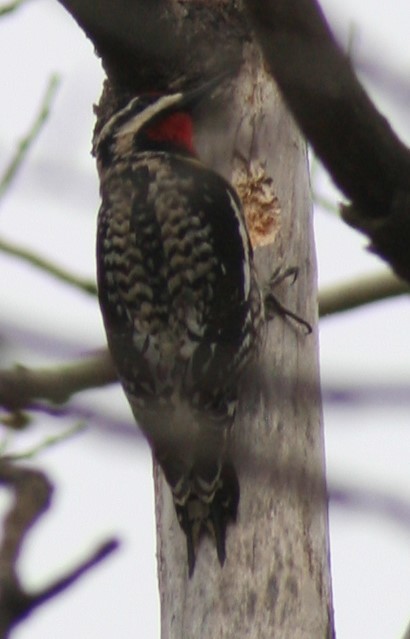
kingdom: Animalia
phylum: Chordata
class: Aves
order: Piciformes
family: Picidae
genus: Sphyrapicus
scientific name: Sphyrapicus varius
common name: Yellow-bellied sapsucker
